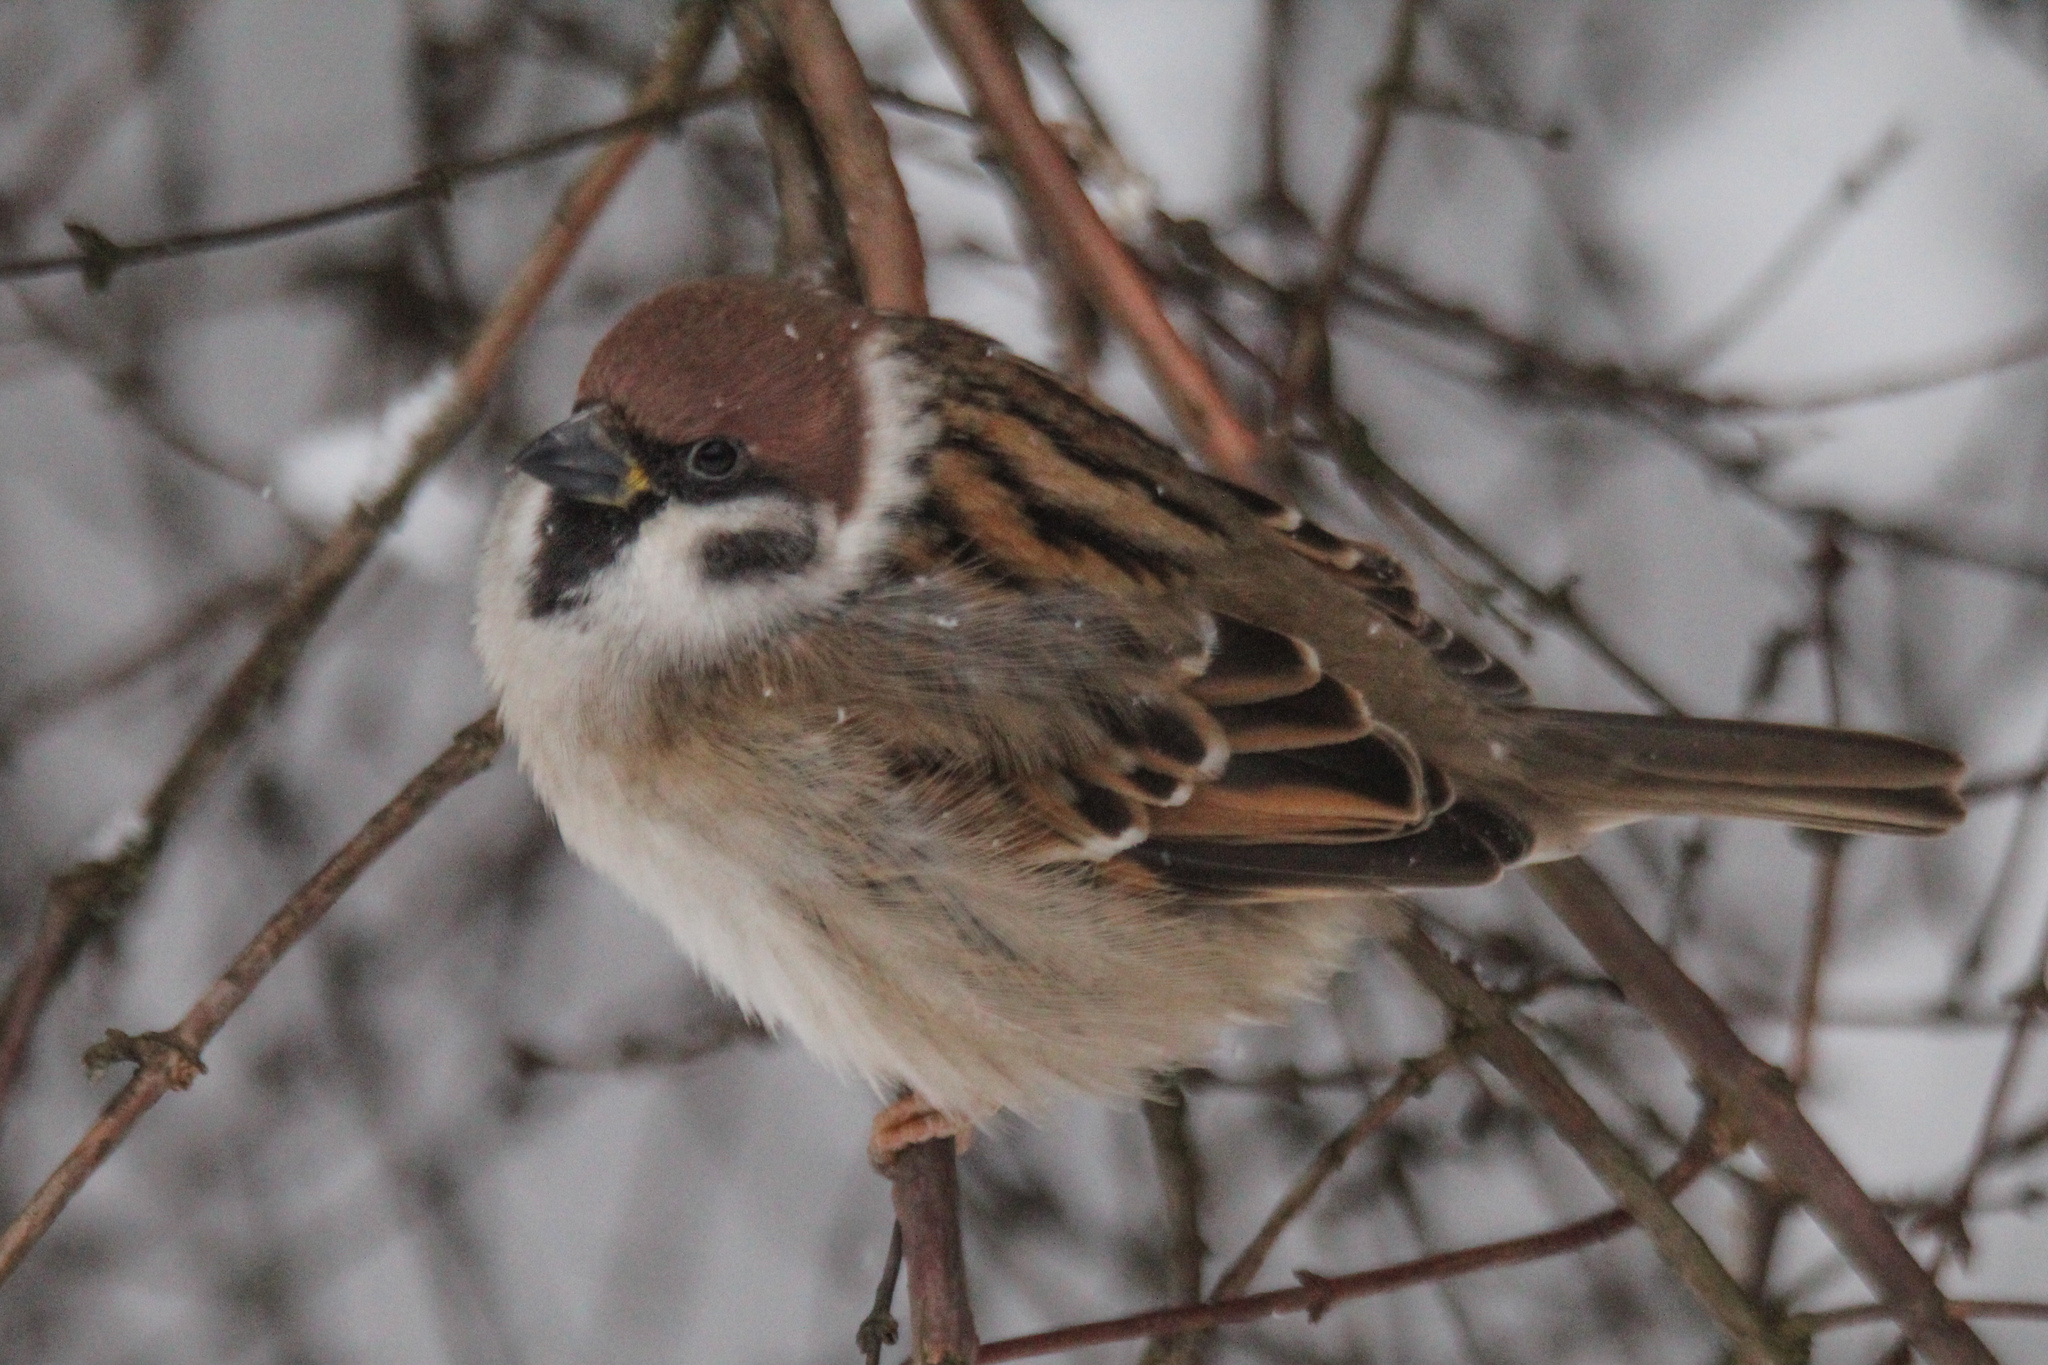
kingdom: Animalia
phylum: Chordata
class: Aves
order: Passeriformes
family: Passeridae
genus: Passer
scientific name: Passer montanus
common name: Eurasian tree sparrow
